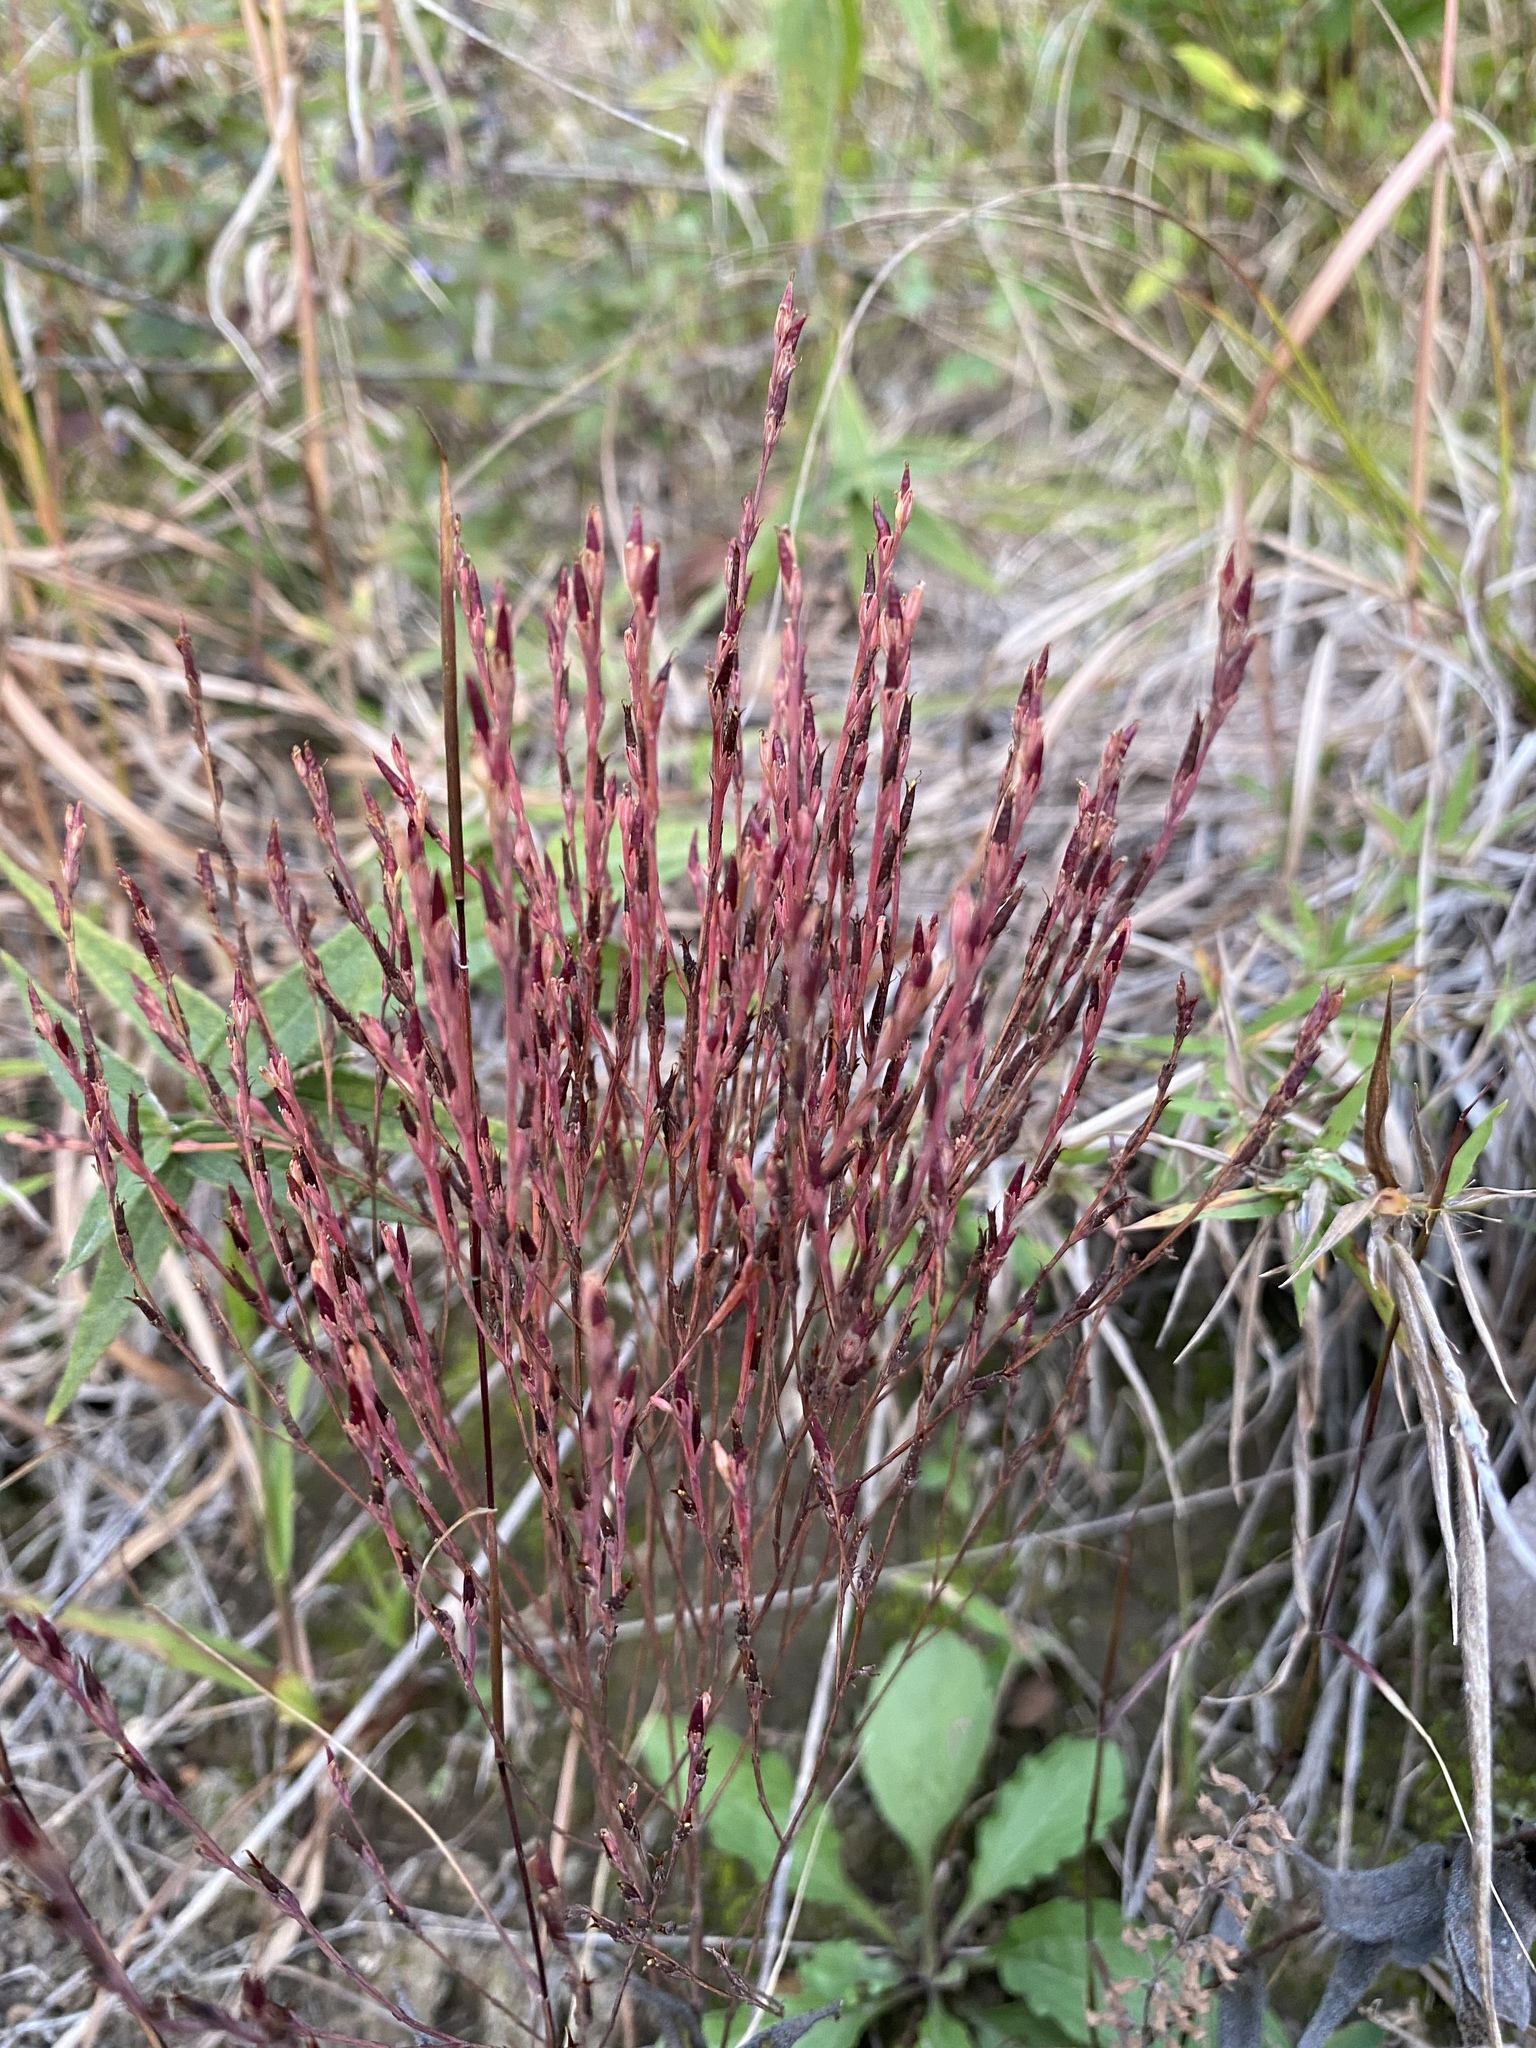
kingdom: Plantae
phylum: Tracheophyta
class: Magnoliopsida
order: Malpighiales
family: Hypericaceae
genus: Hypericum
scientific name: Hypericum gentianoides
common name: Gentian-leaved st. john's-wort
